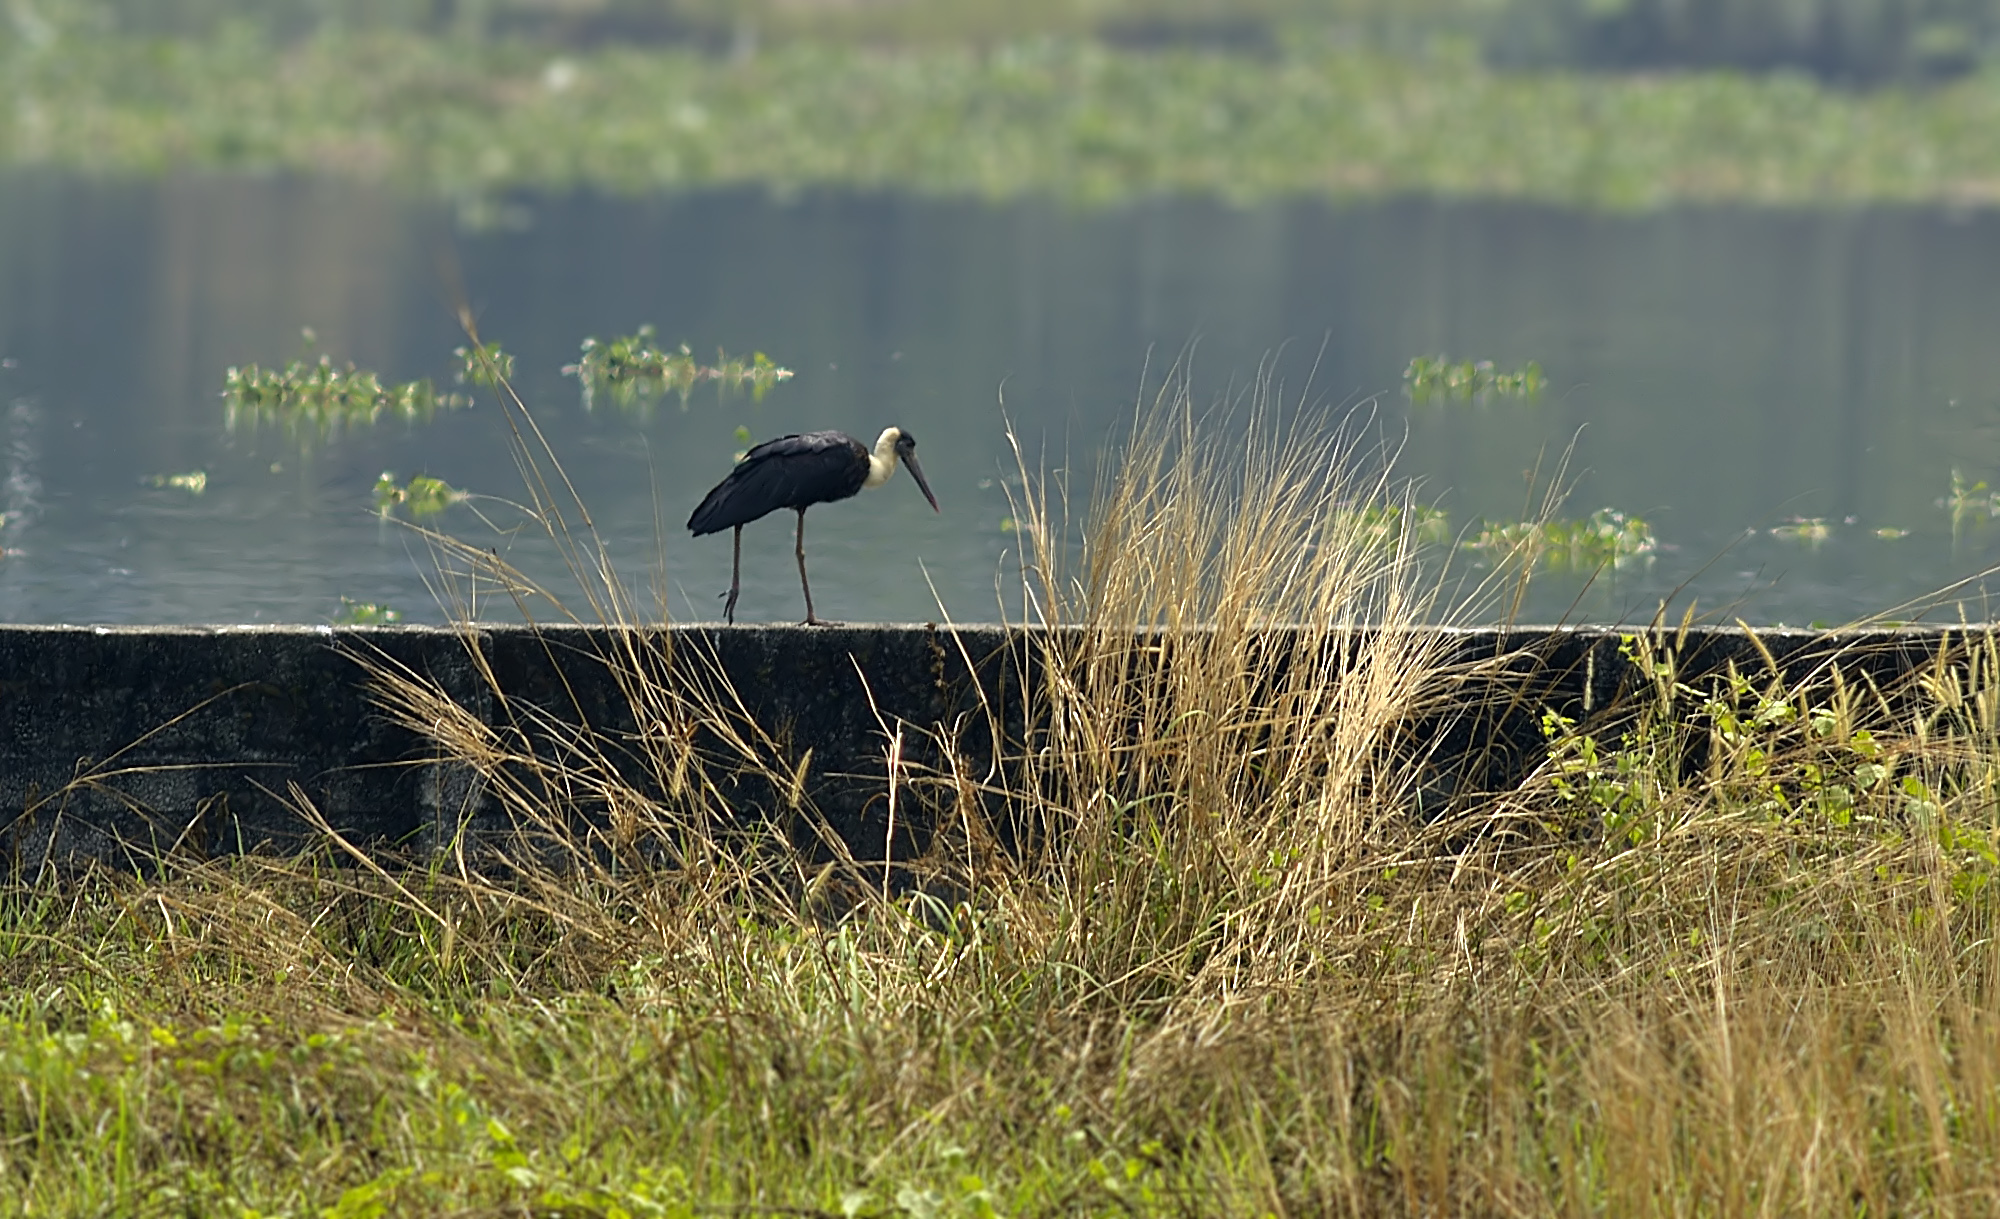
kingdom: Animalia
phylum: Chordata
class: Aves
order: Ciconiiformes
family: Ciconiidae
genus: Ciconia
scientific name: Ciconia episcopus
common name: Woolly-necked stork
